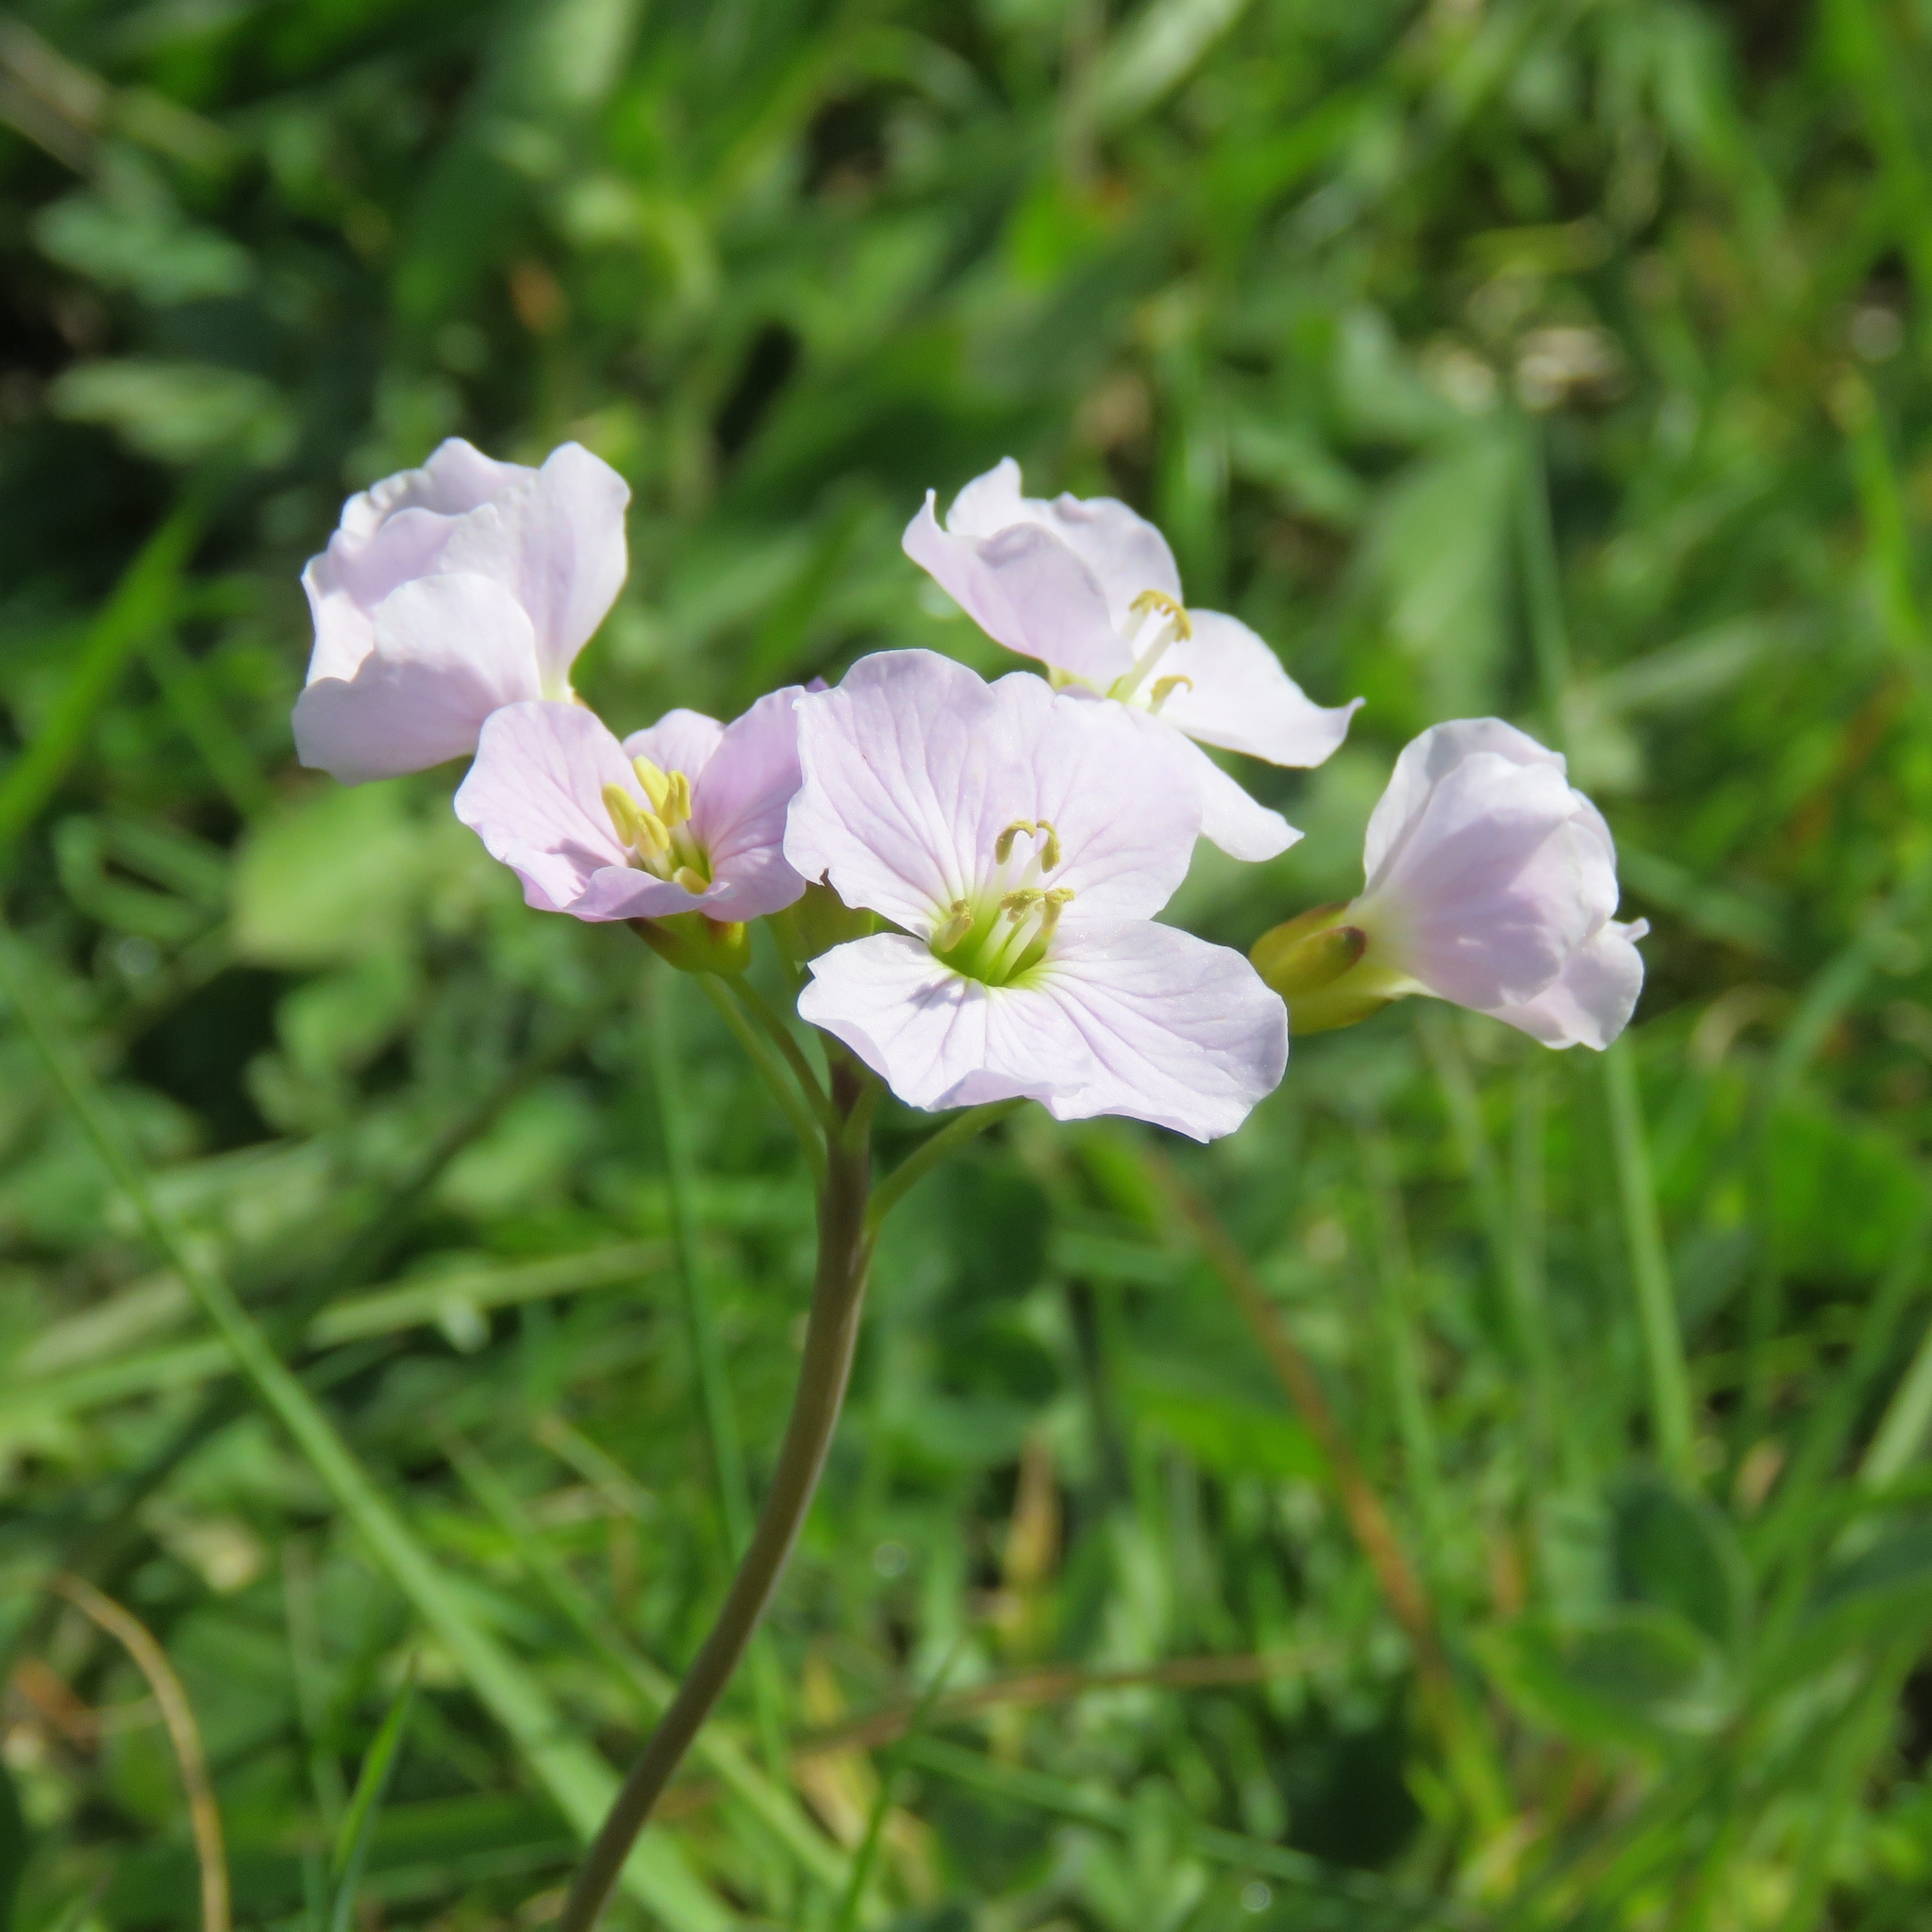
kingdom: Plantae
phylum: Tracheophyta
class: Magnoliopsida
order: Brassicales
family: Brassicaceae
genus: Cardamine
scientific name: Cardamine pratensis
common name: Cuckoo flower
